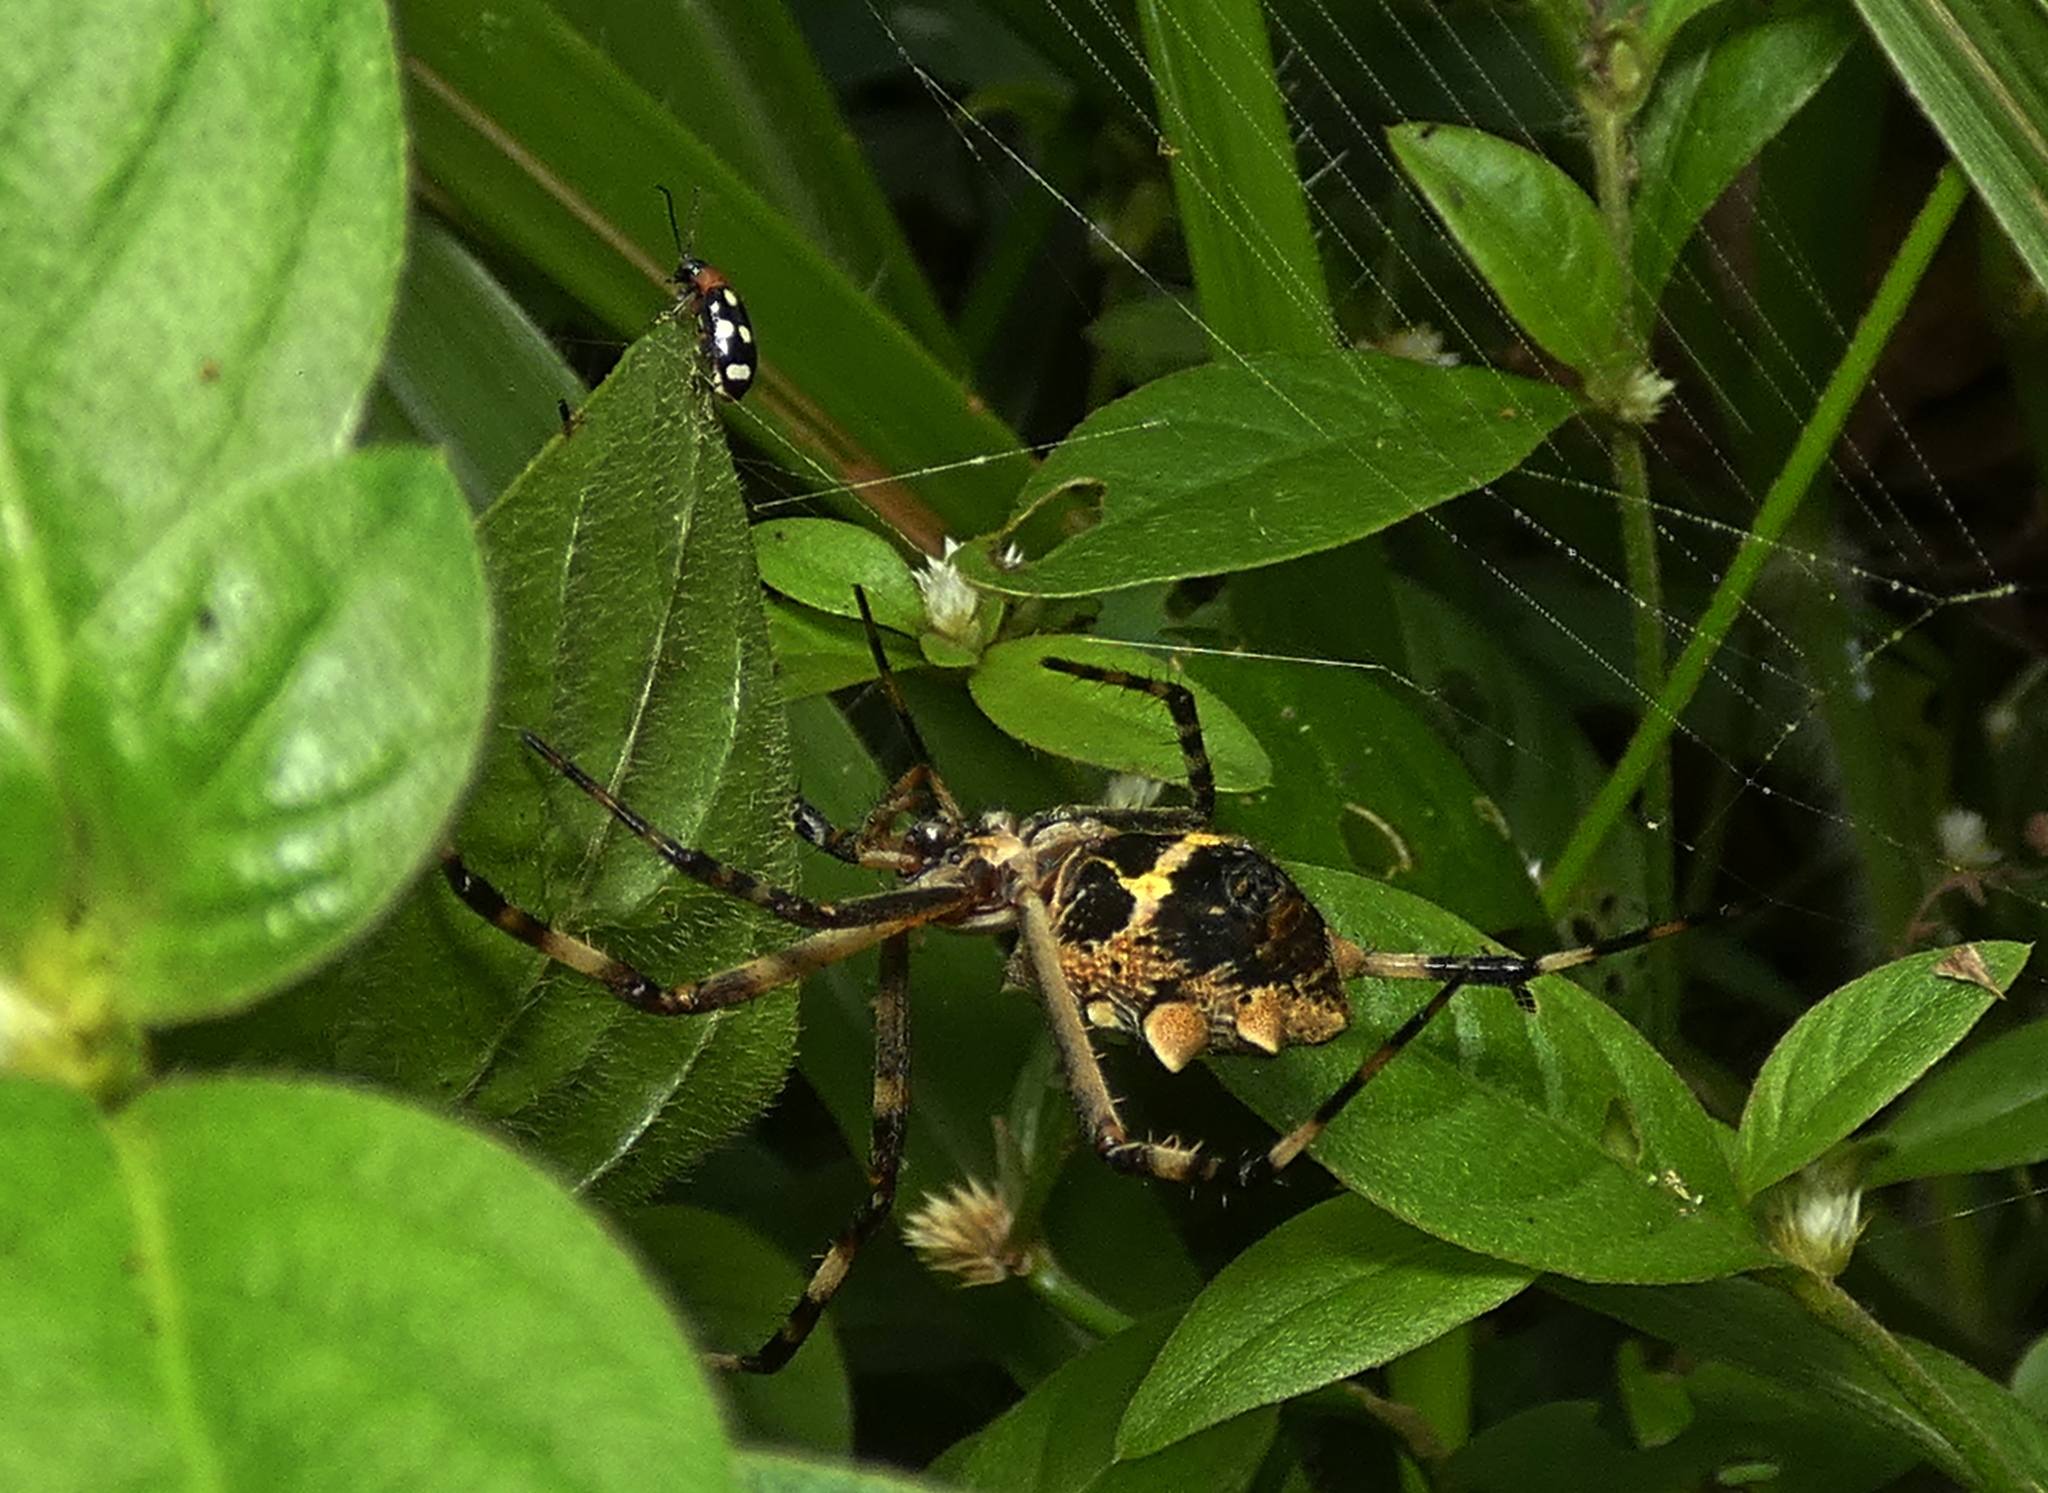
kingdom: Animalia
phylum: Arthropoda
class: Arachnida
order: Araneae
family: Araneidae
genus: Argiope
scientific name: Argiope argentata
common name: Orb weavers
